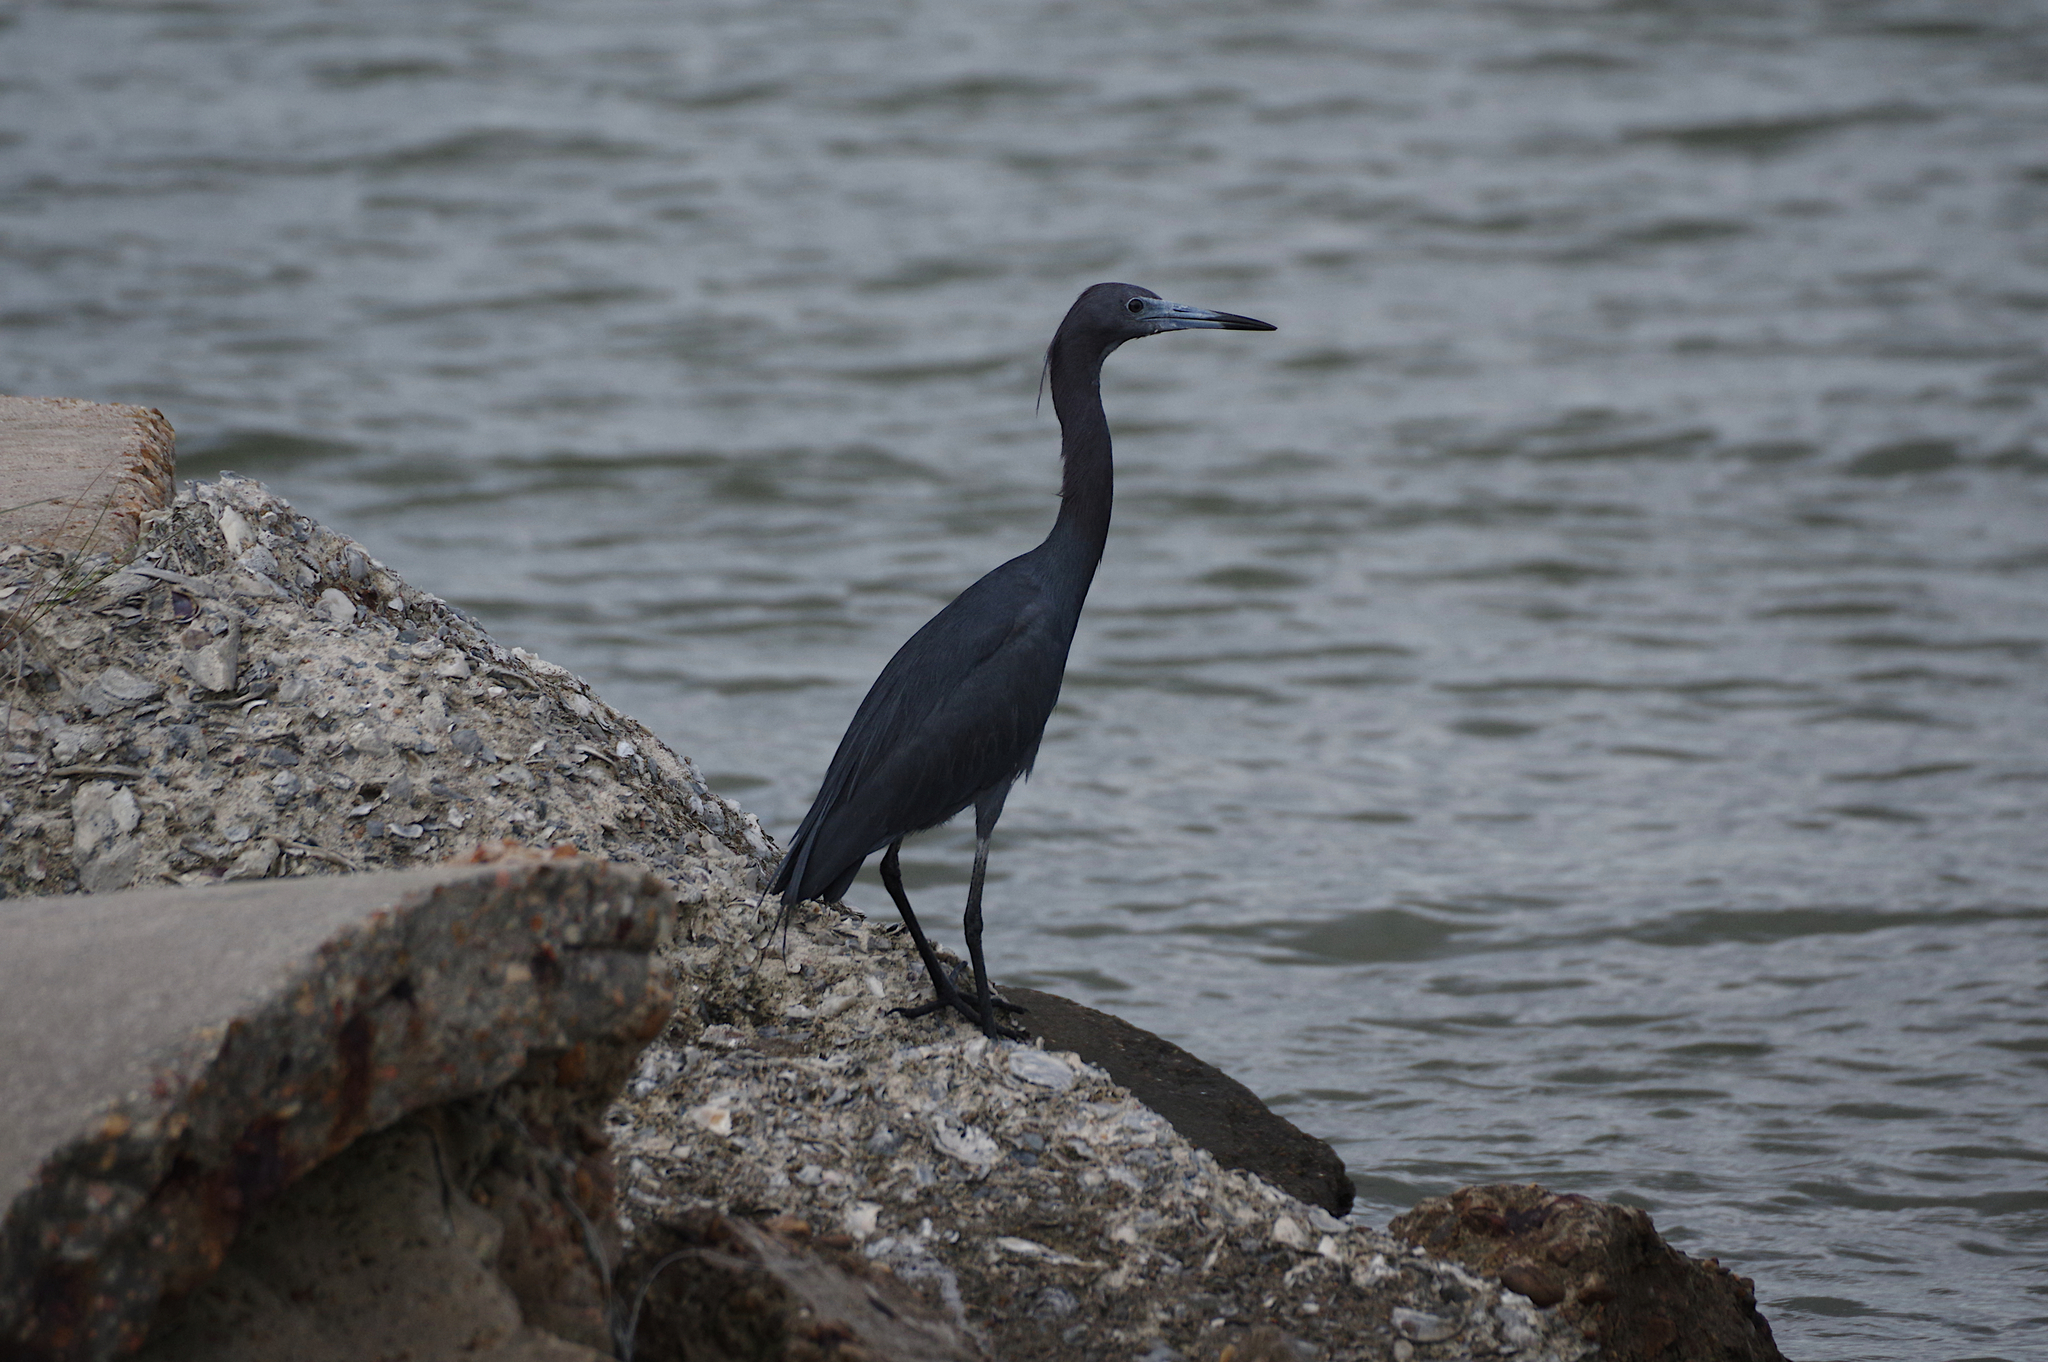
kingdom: Animalia
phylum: Chordata
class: Aves
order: Pelecaniformes
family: Ardeidae
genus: Egretta
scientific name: Egretta caerulea
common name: Little blue heron
